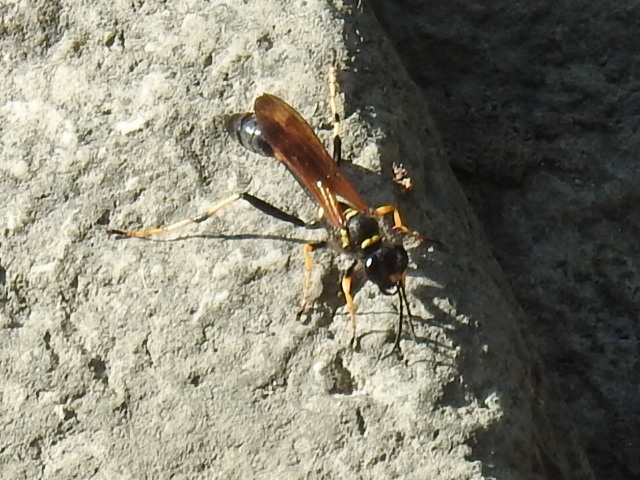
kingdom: Animalia
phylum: Arthropoda
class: Insecta
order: Hymenoptera
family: Sphecidae
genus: Sceliphron
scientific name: Sceliphron caementarium
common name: Mud dauber
